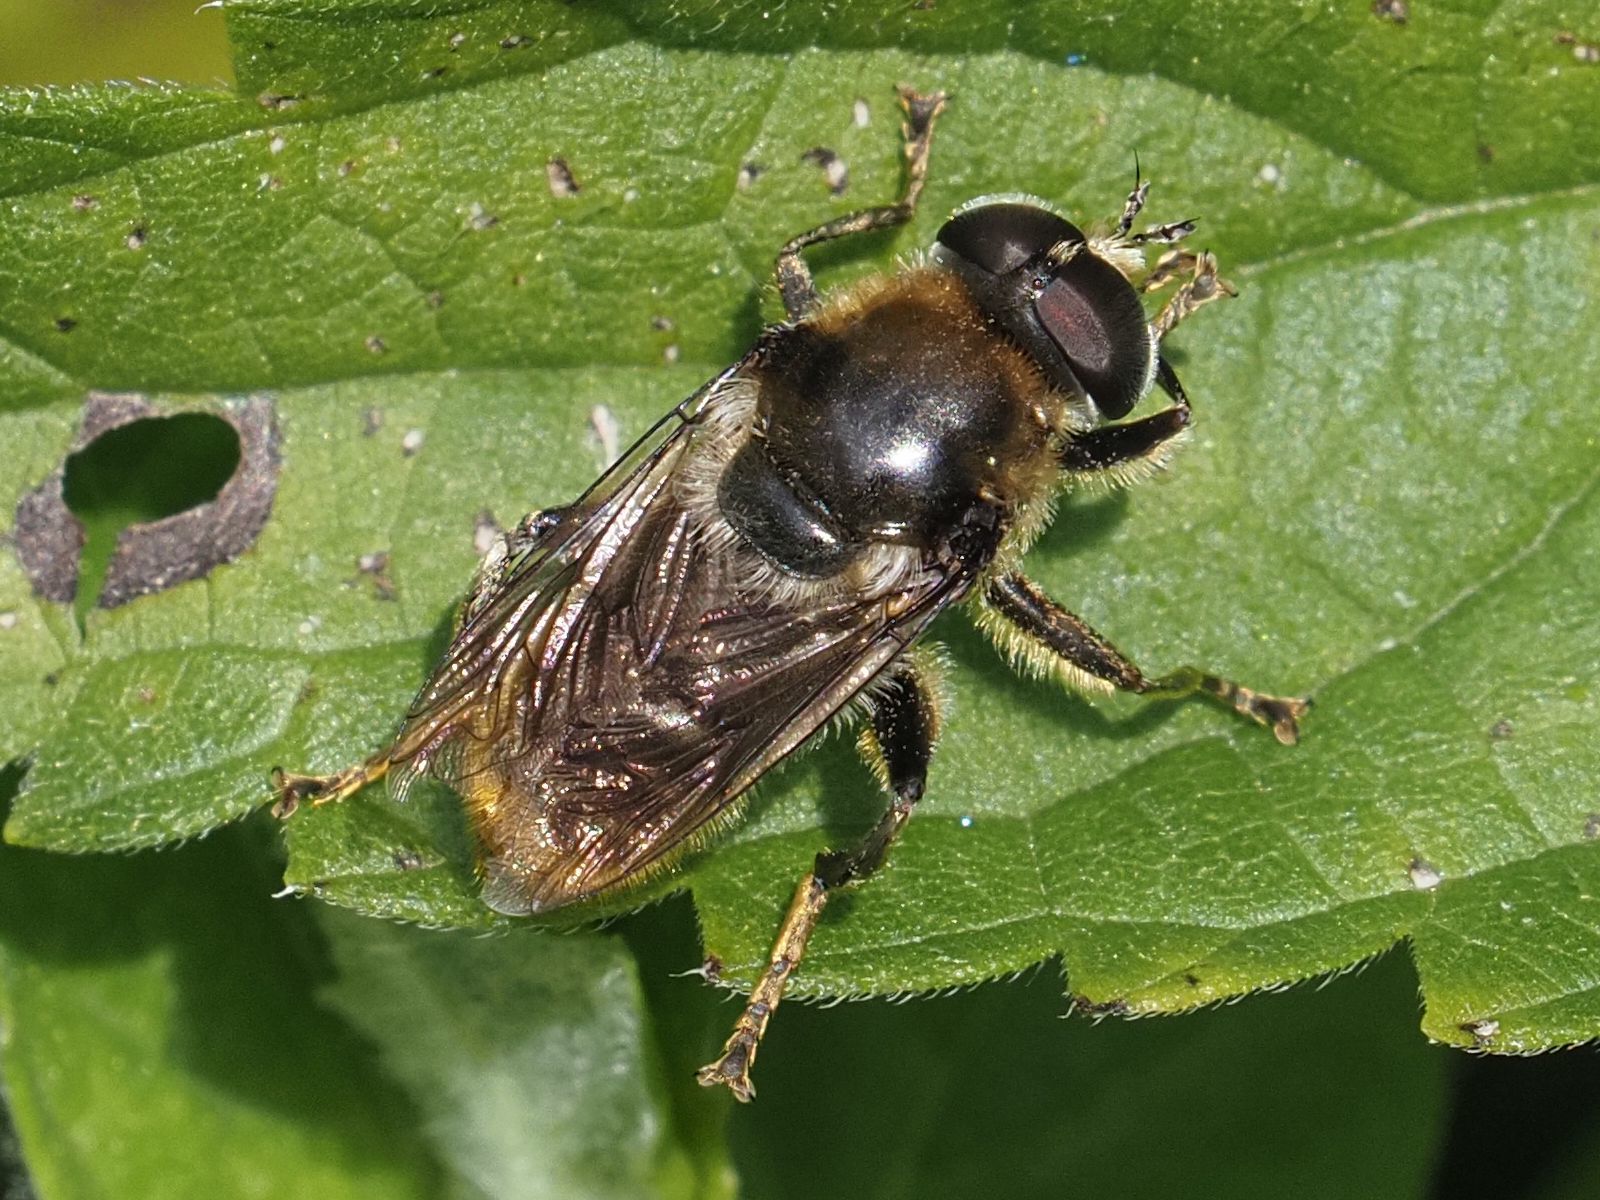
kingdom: Animalia
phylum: Arthropoda
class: Insecta
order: Diptera
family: Syrphidae
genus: Merodon
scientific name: Merodon constans
